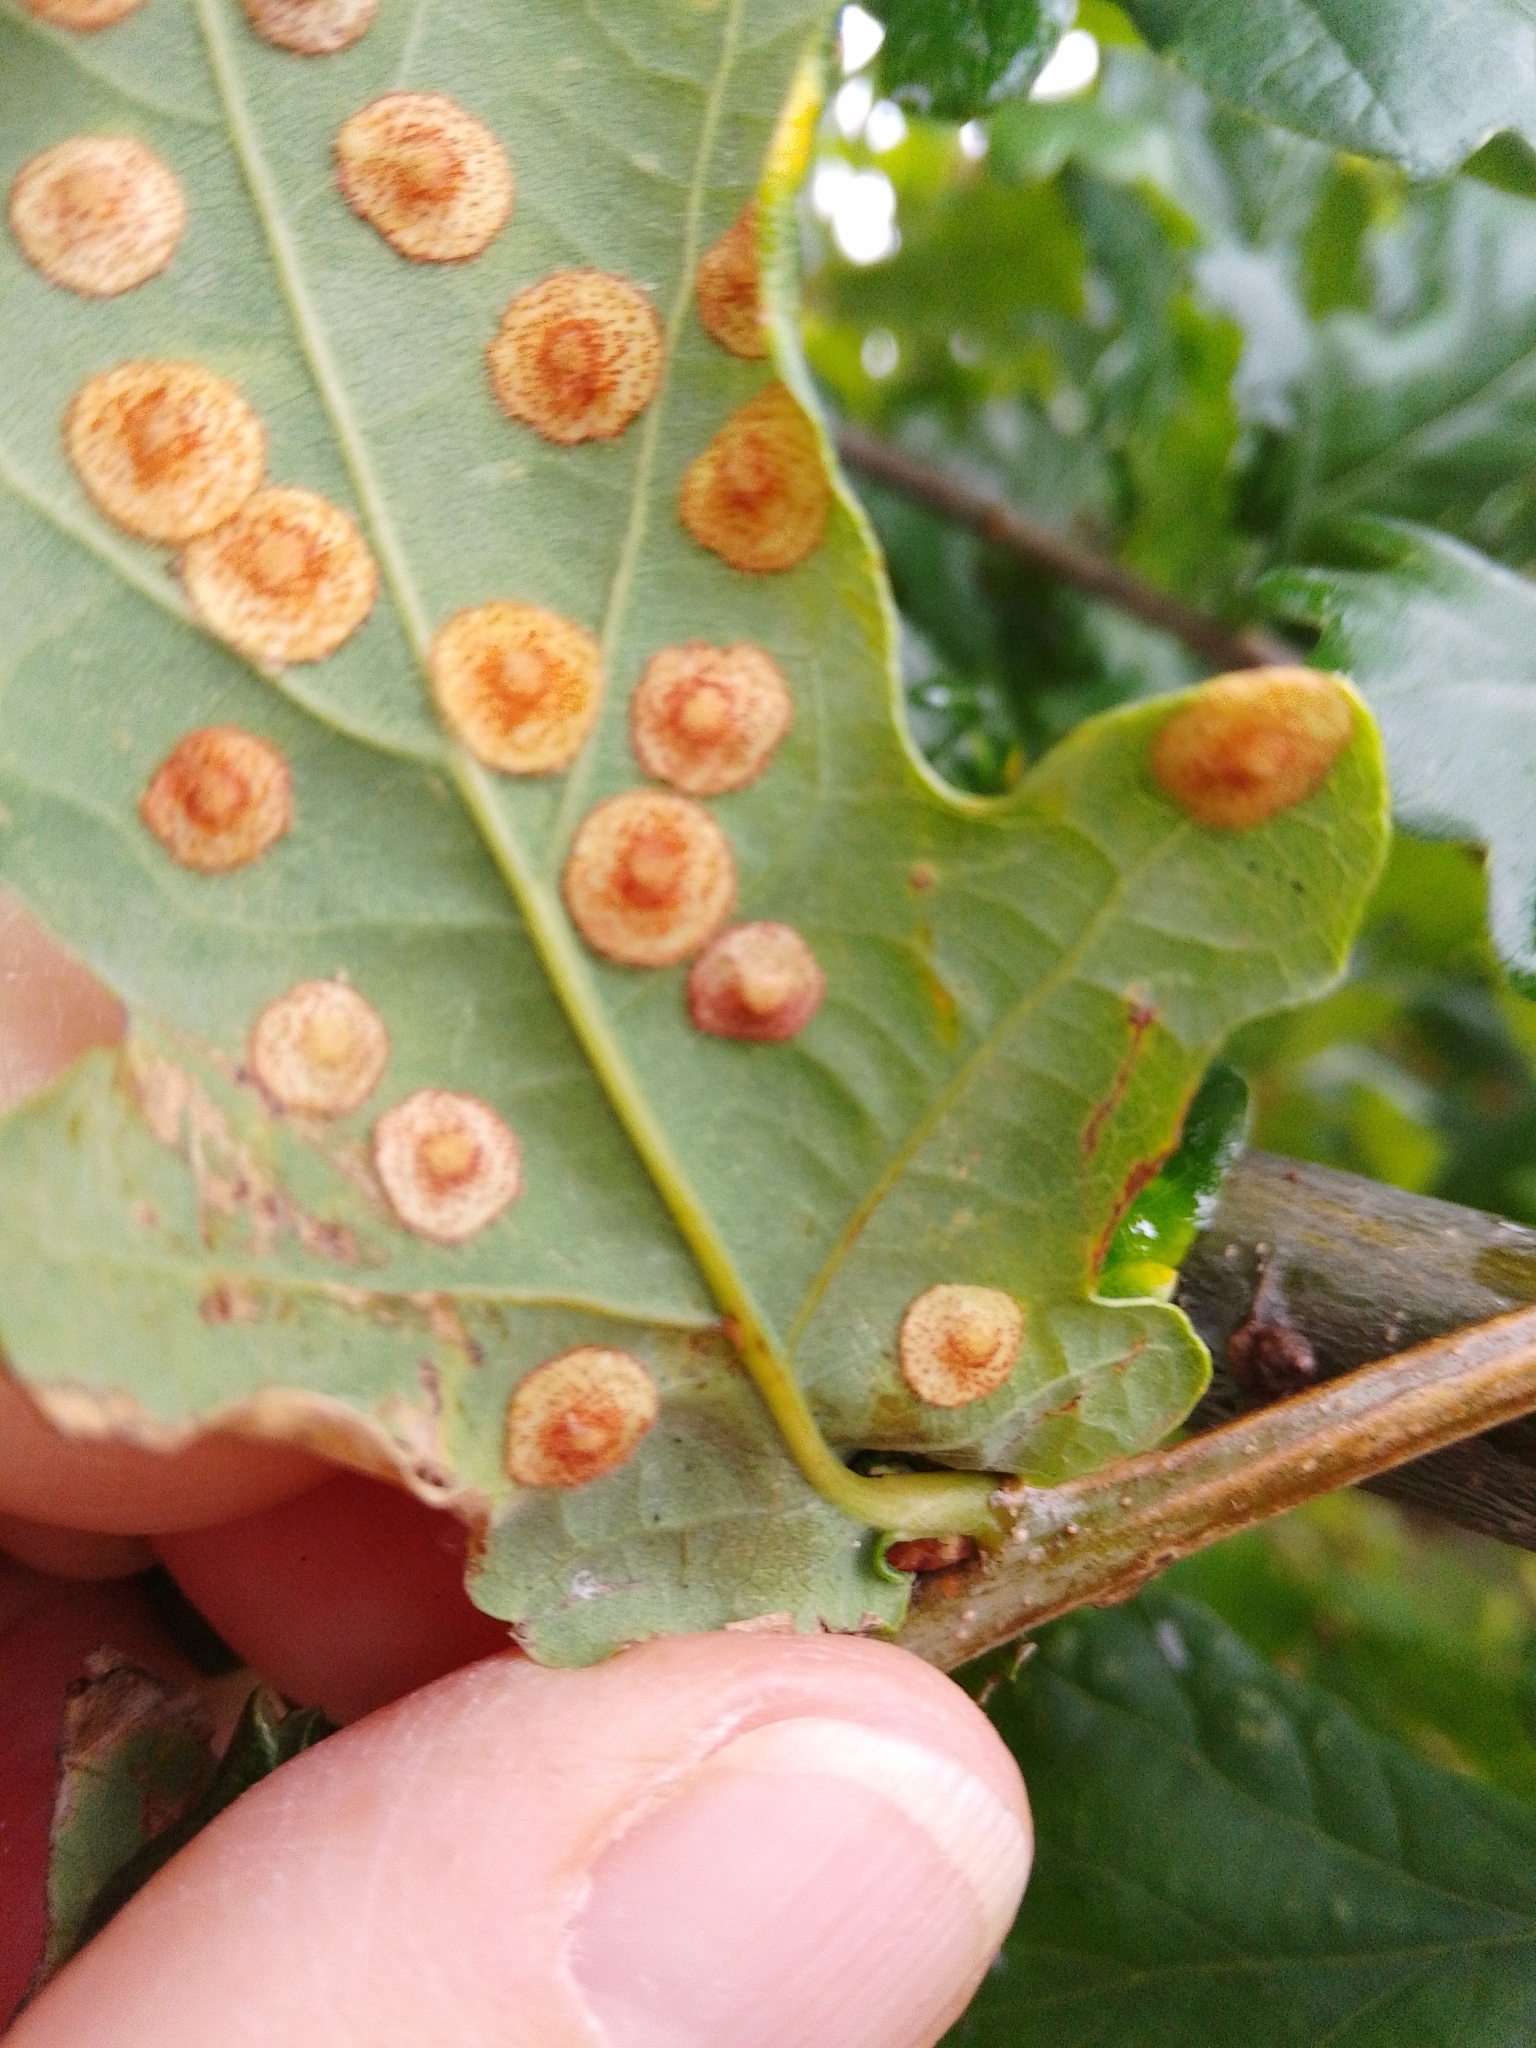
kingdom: Animalia
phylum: Arthropoda
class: Insecta
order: Hymenoptera
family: Cynipidae
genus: Neuroterus
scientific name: Neuroterus quercusbaccarum
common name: Common spangle gall
